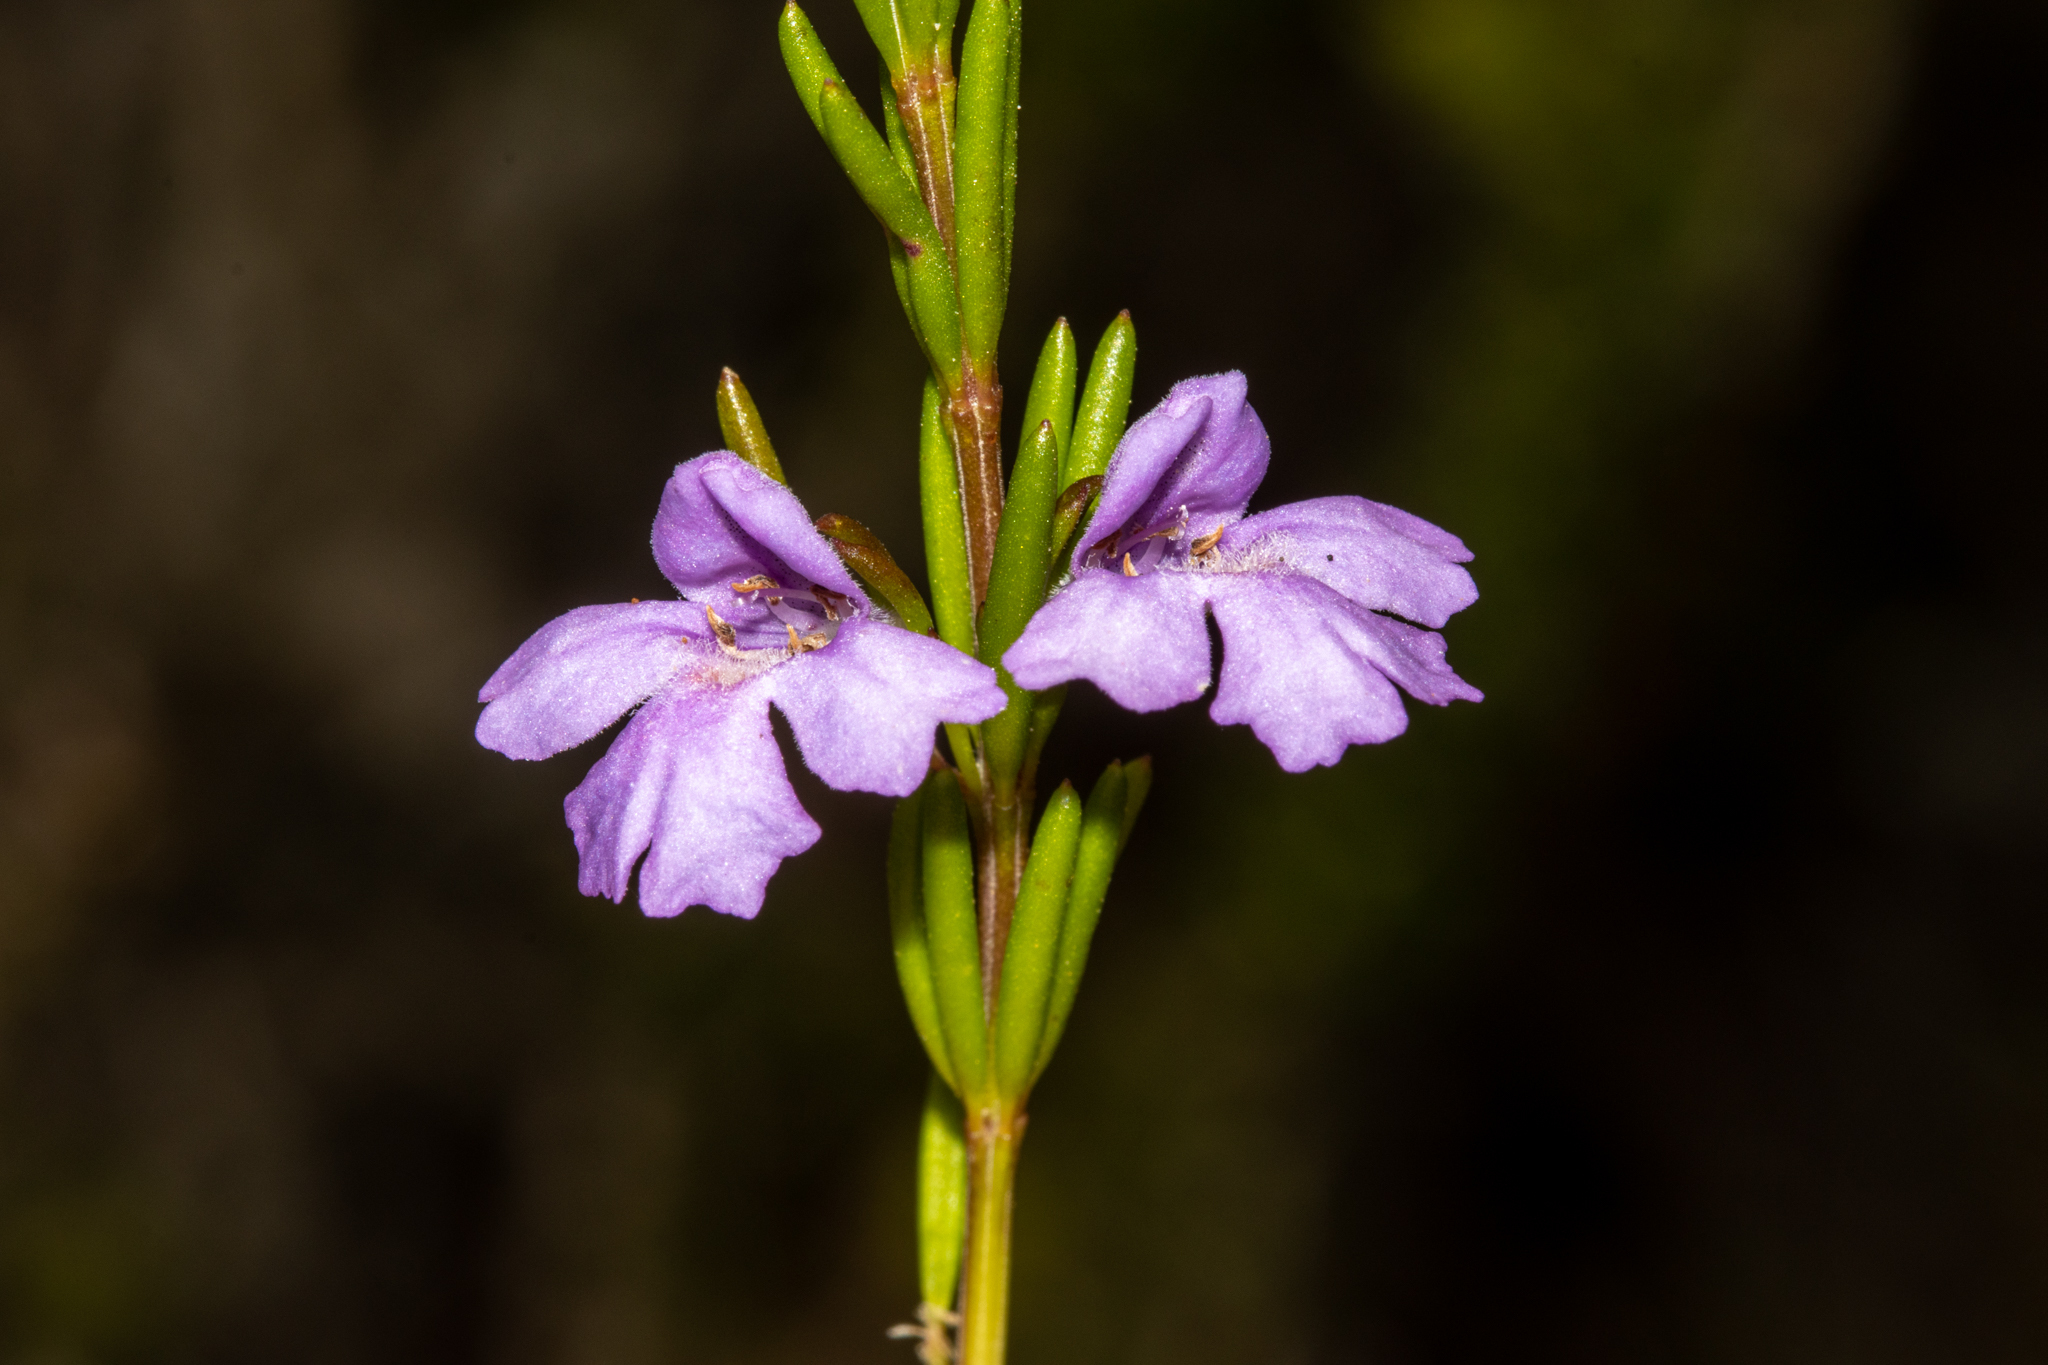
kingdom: Plantae
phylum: Tracheophyta
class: Magnoliopsida
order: Lamiales
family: Lamiaceae
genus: Hemigenia
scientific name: Hemigenia purpurea
